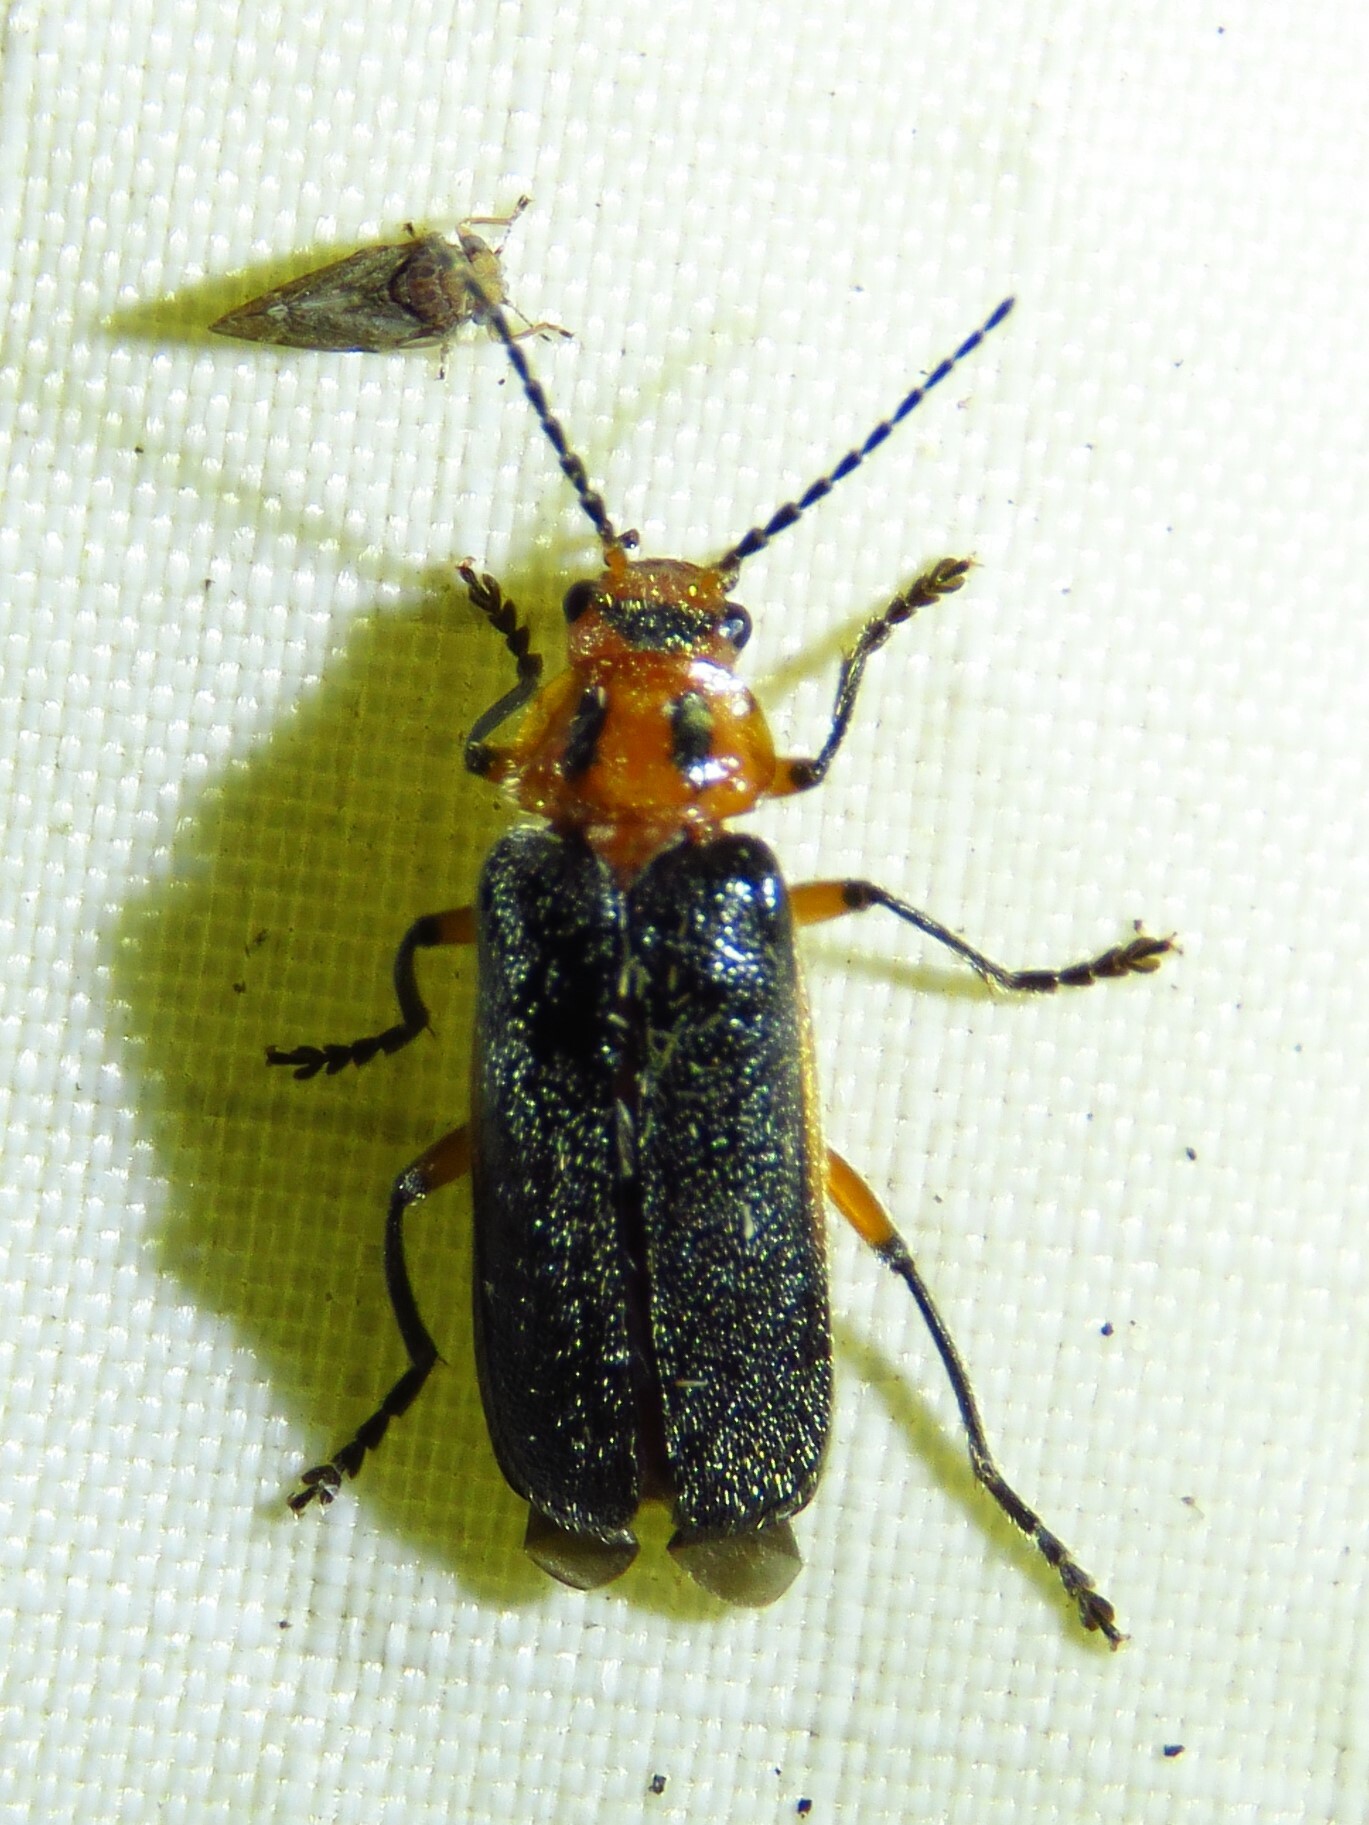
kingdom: Animalia
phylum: Arthropoda
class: Insecta
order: Coleoptera
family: Cantharidae
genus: Atalantycha
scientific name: Atalantycha bilineata
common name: Two-lined leatherwing
